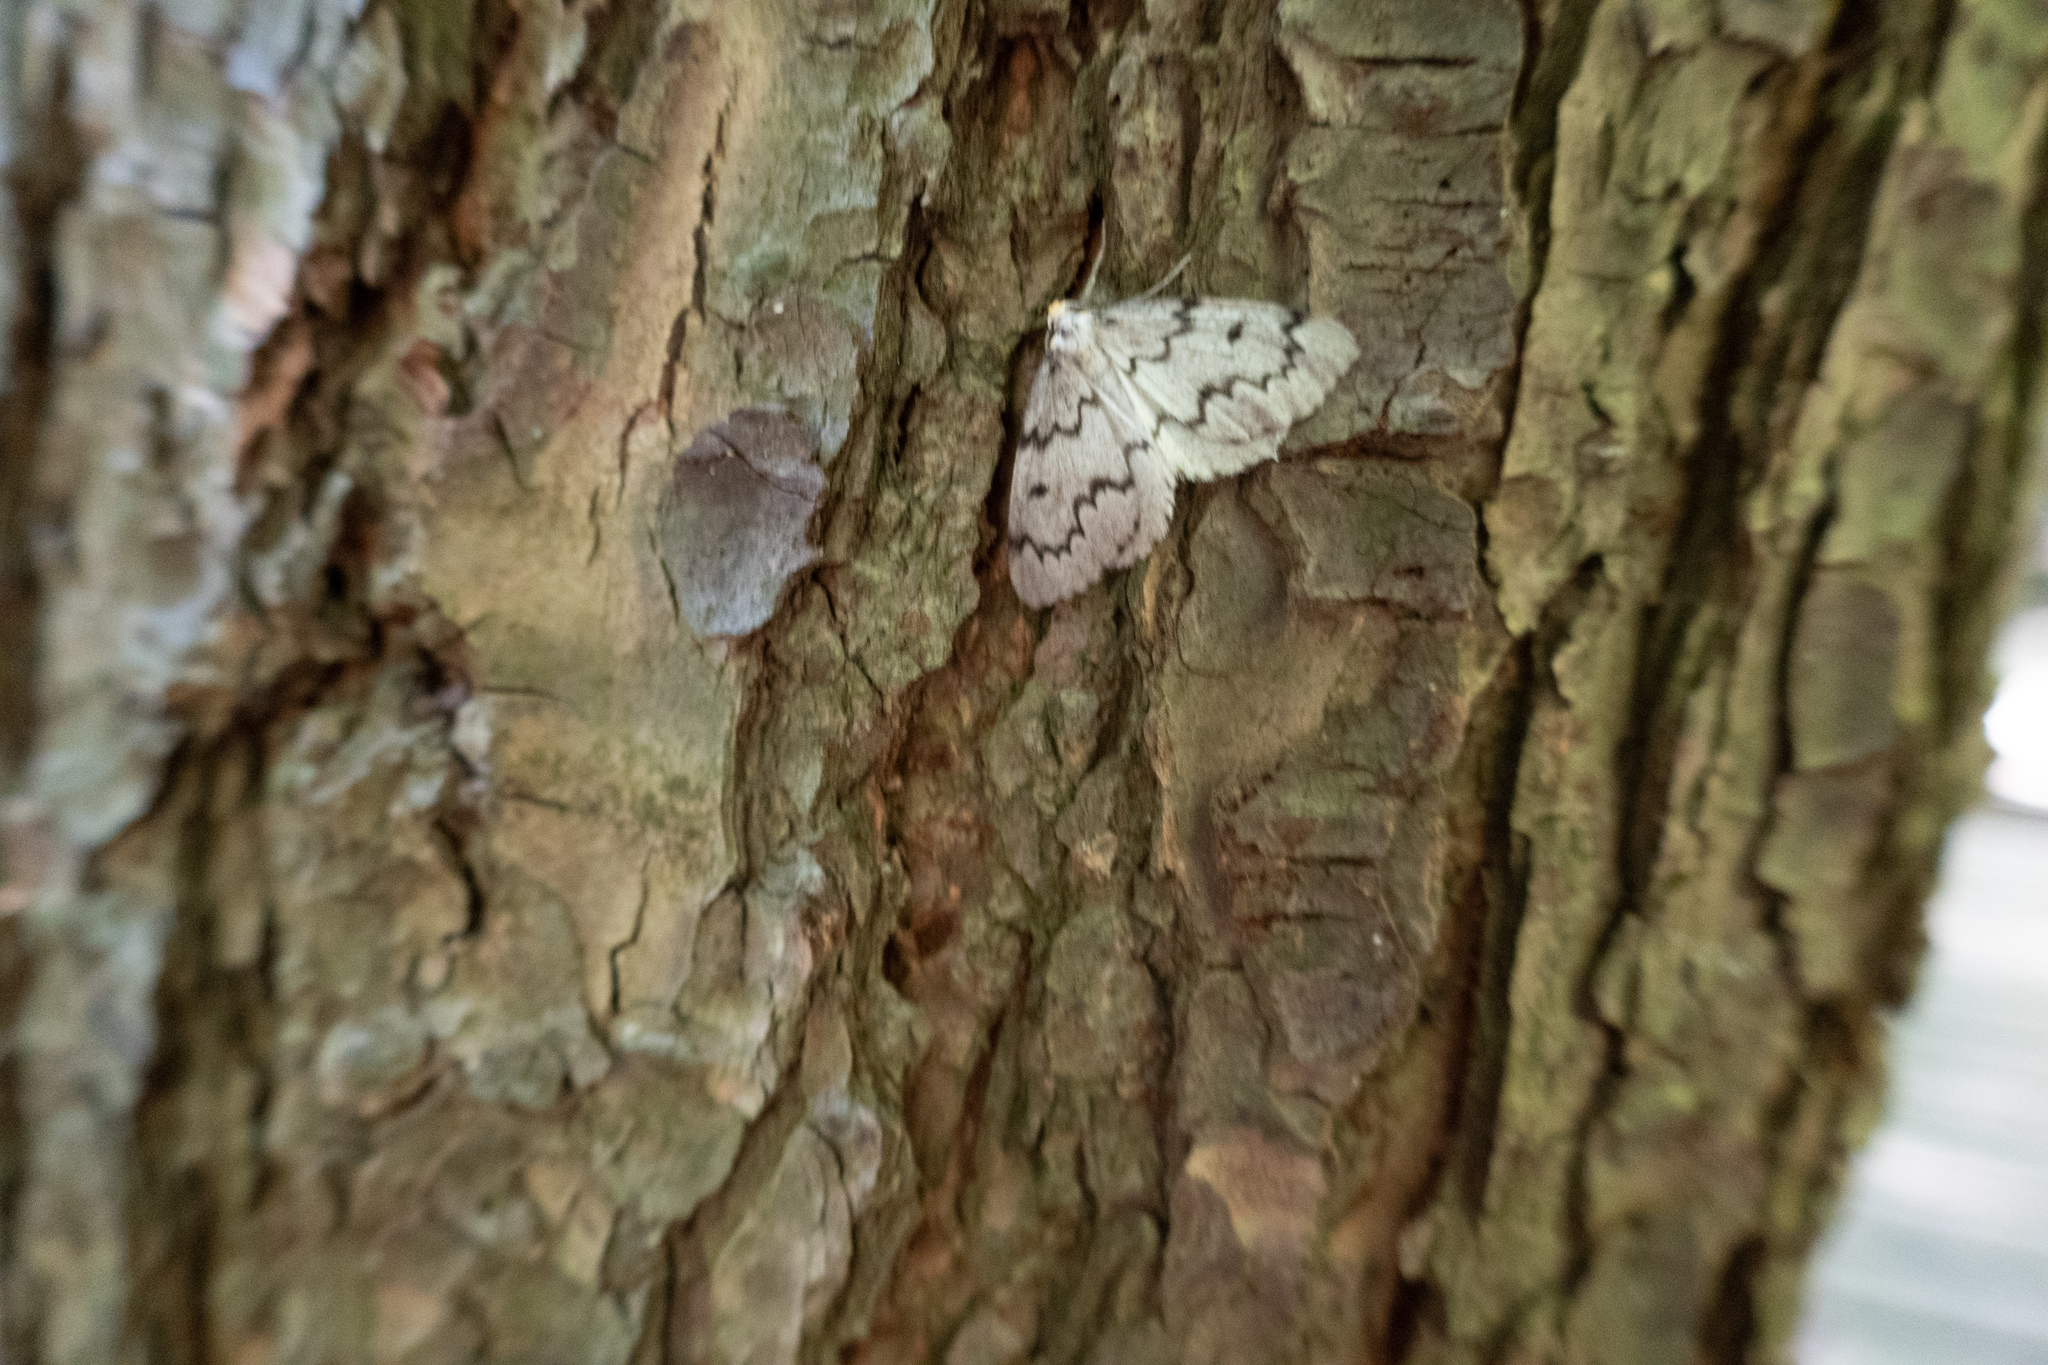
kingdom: Animalia
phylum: Arthropoda
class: Insecta
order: Lepidoptera
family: Geometridae
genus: Nepytia
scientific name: Nepytia canosaria
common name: False hemlock looper
